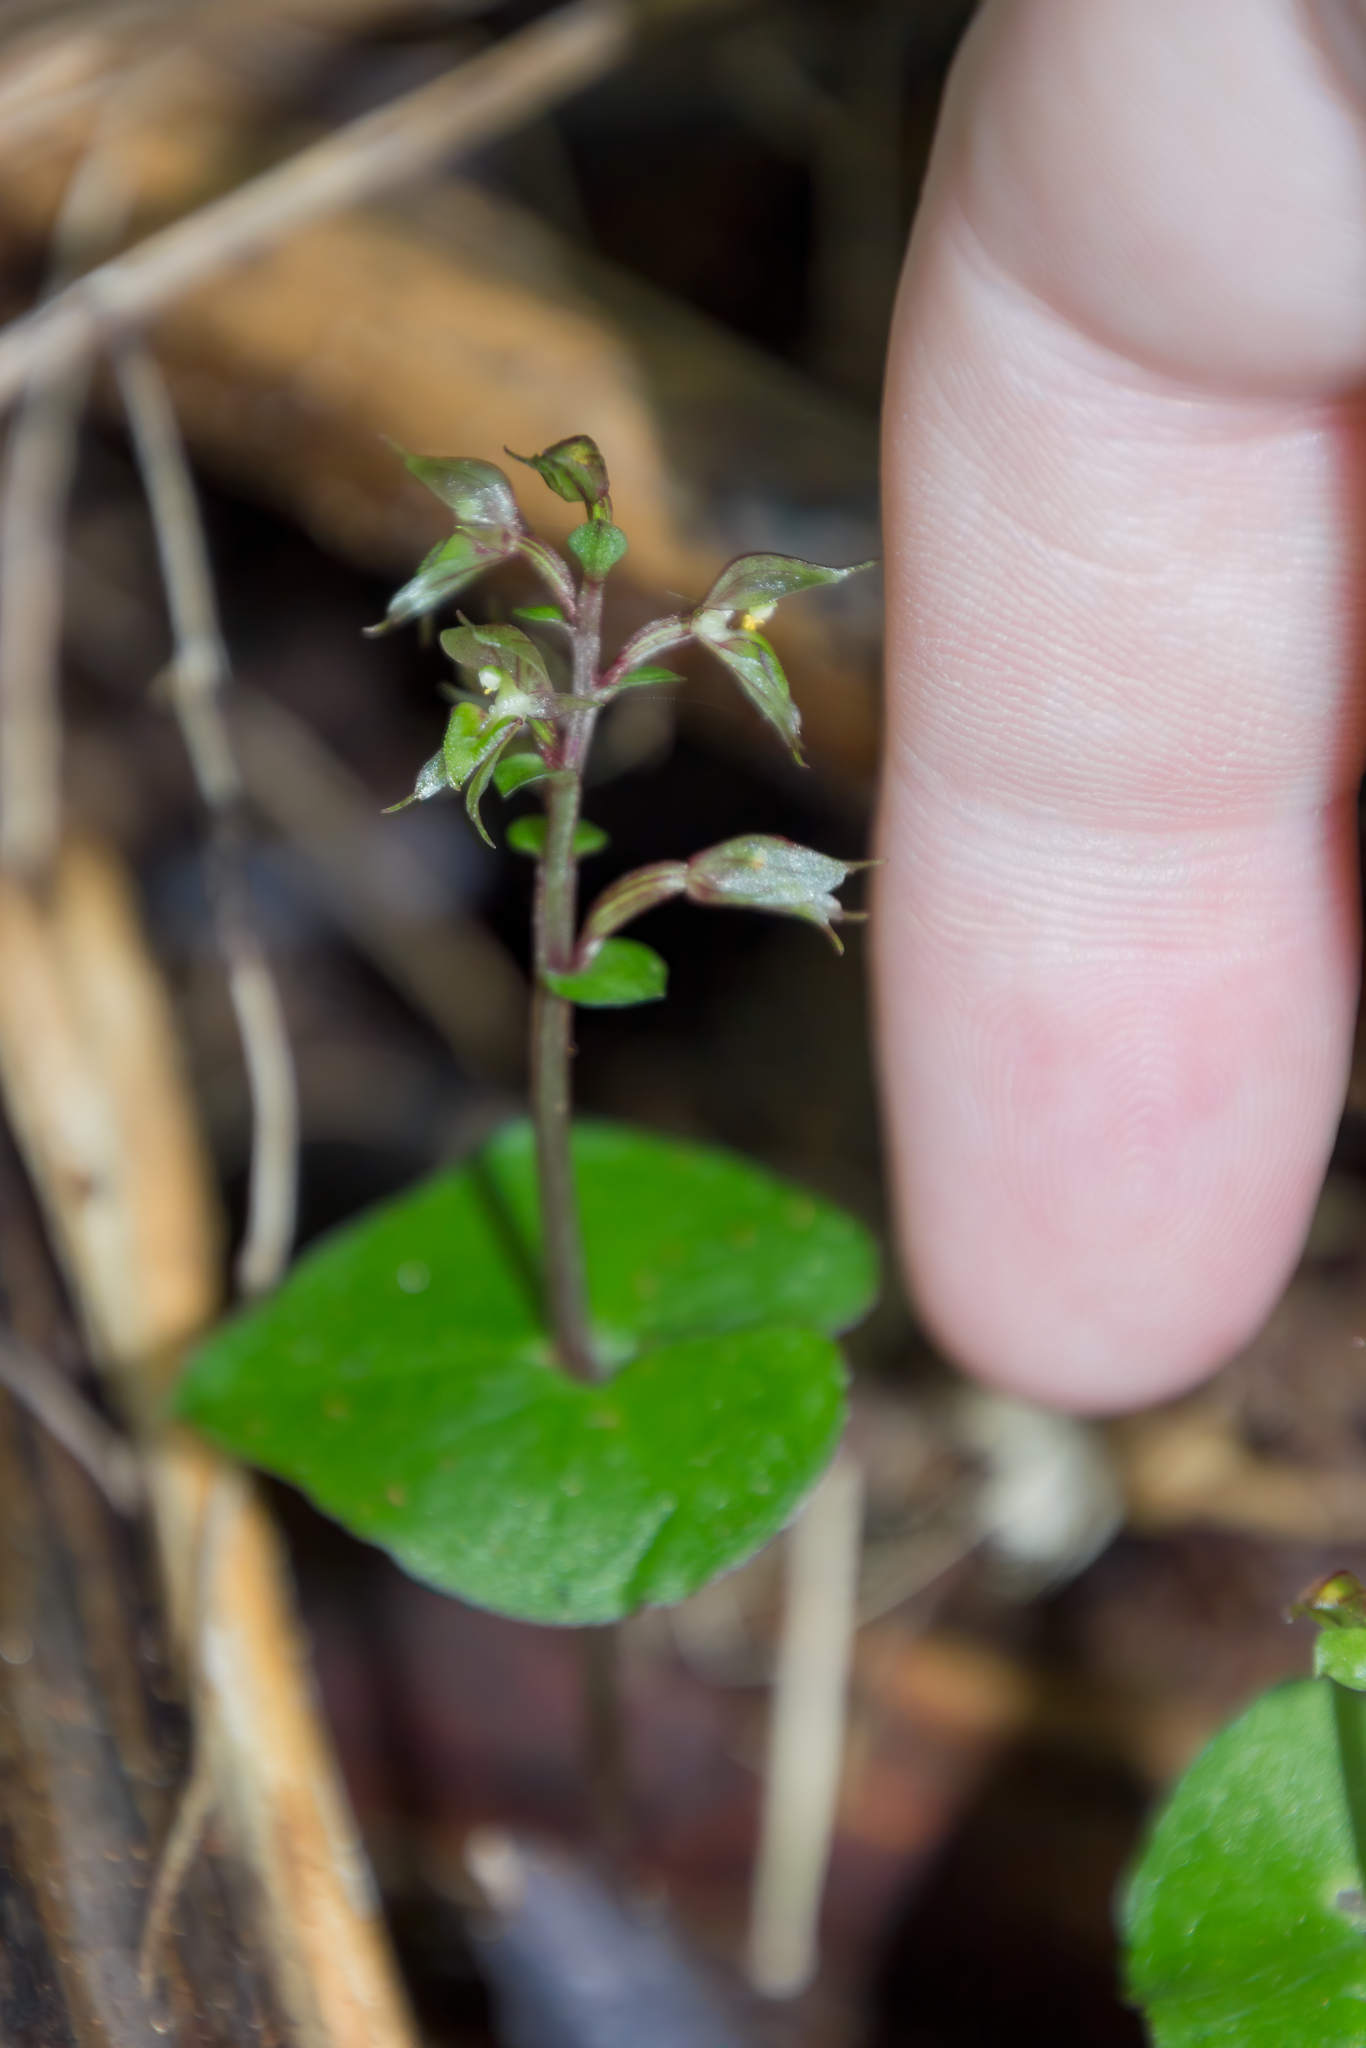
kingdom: Plantae
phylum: Tracheophyta
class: Liliopsida
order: Asparagales
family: Orchidaceae
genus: Acianthus
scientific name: Acianthus sinclairii
